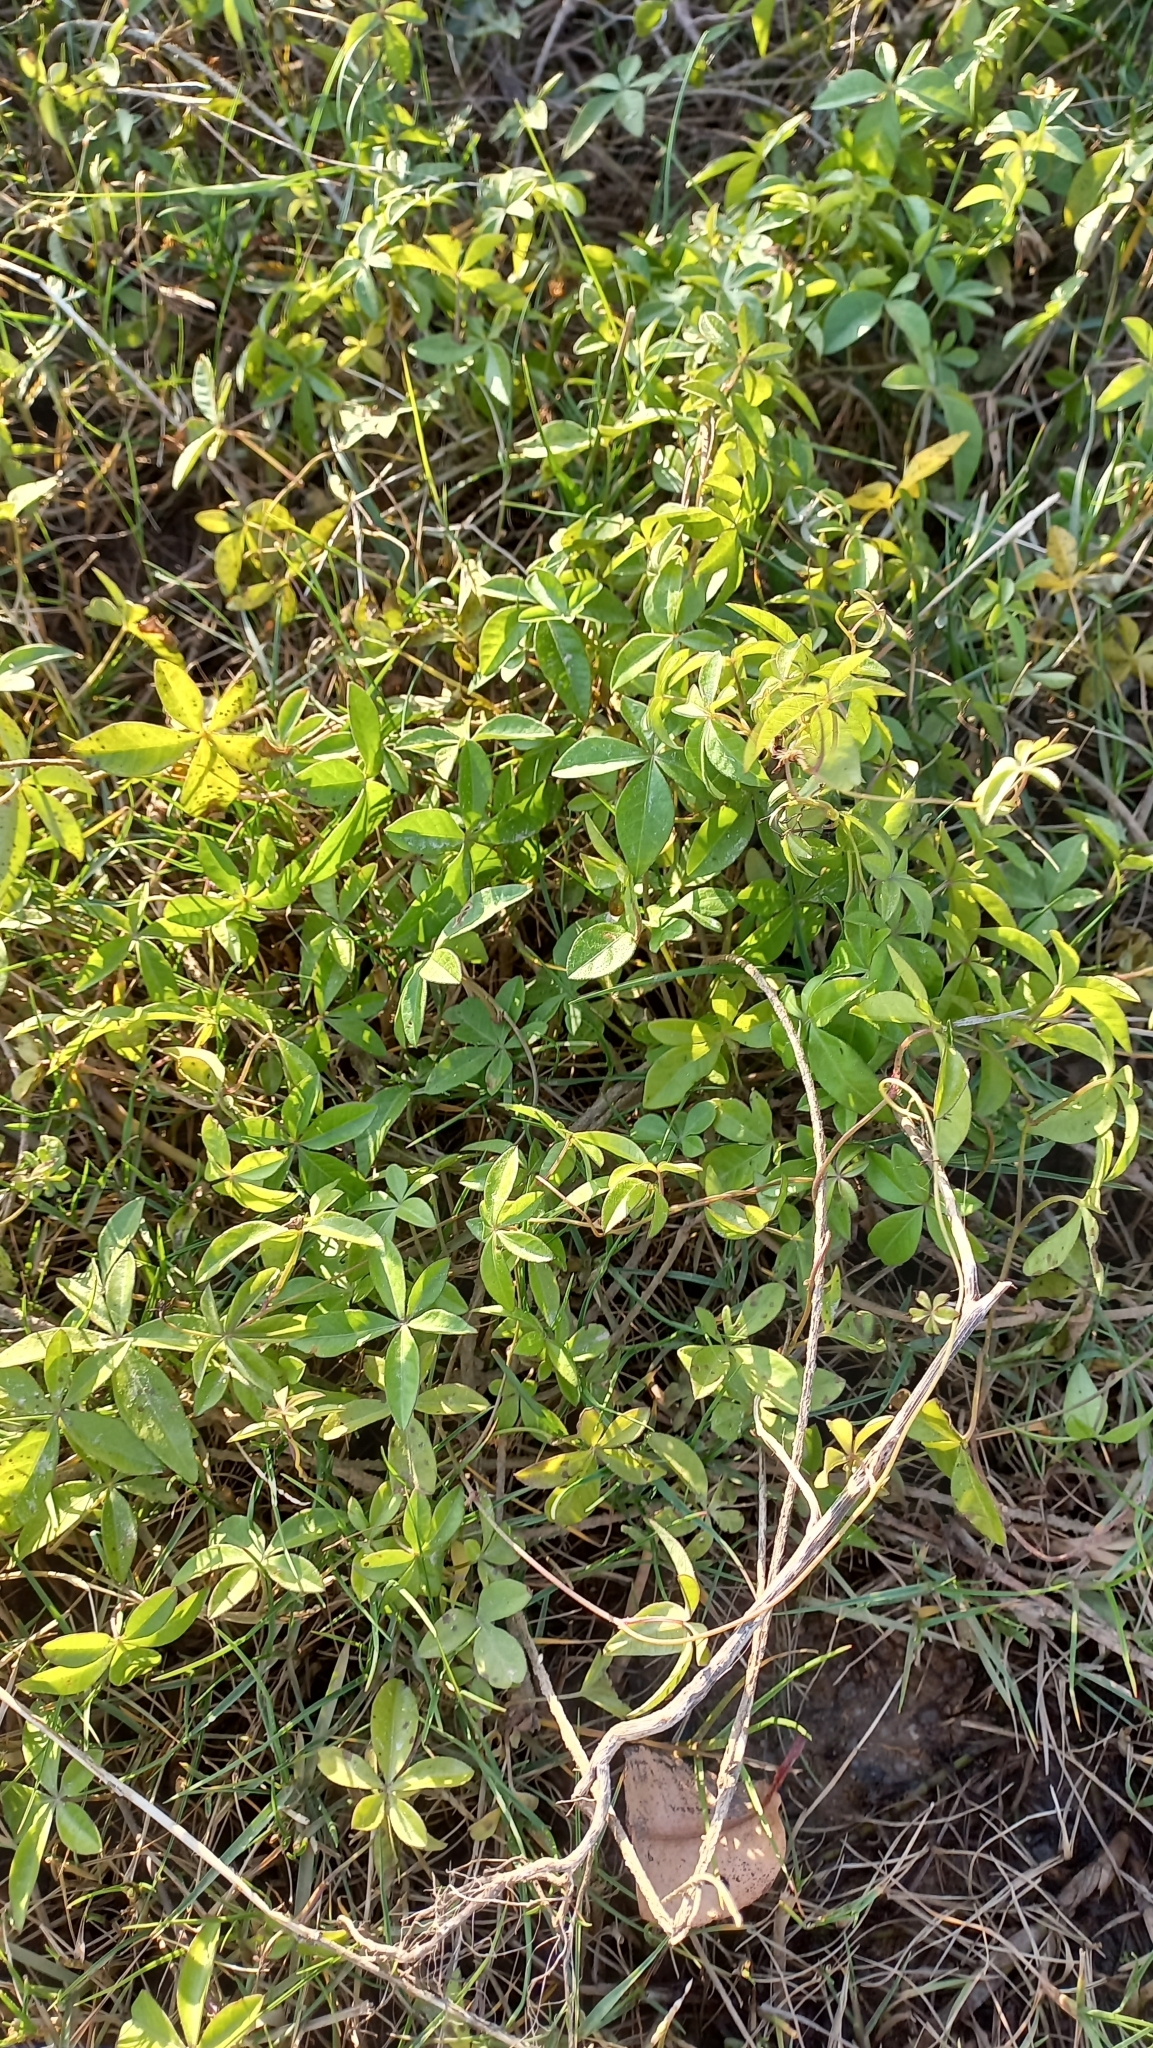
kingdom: Plantae
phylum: Tracheophyta
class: Magnoliopsida
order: Solanales
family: Convolvulaceae
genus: Ipomoea
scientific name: Ipomoea cairica
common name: Mile a minute vine
